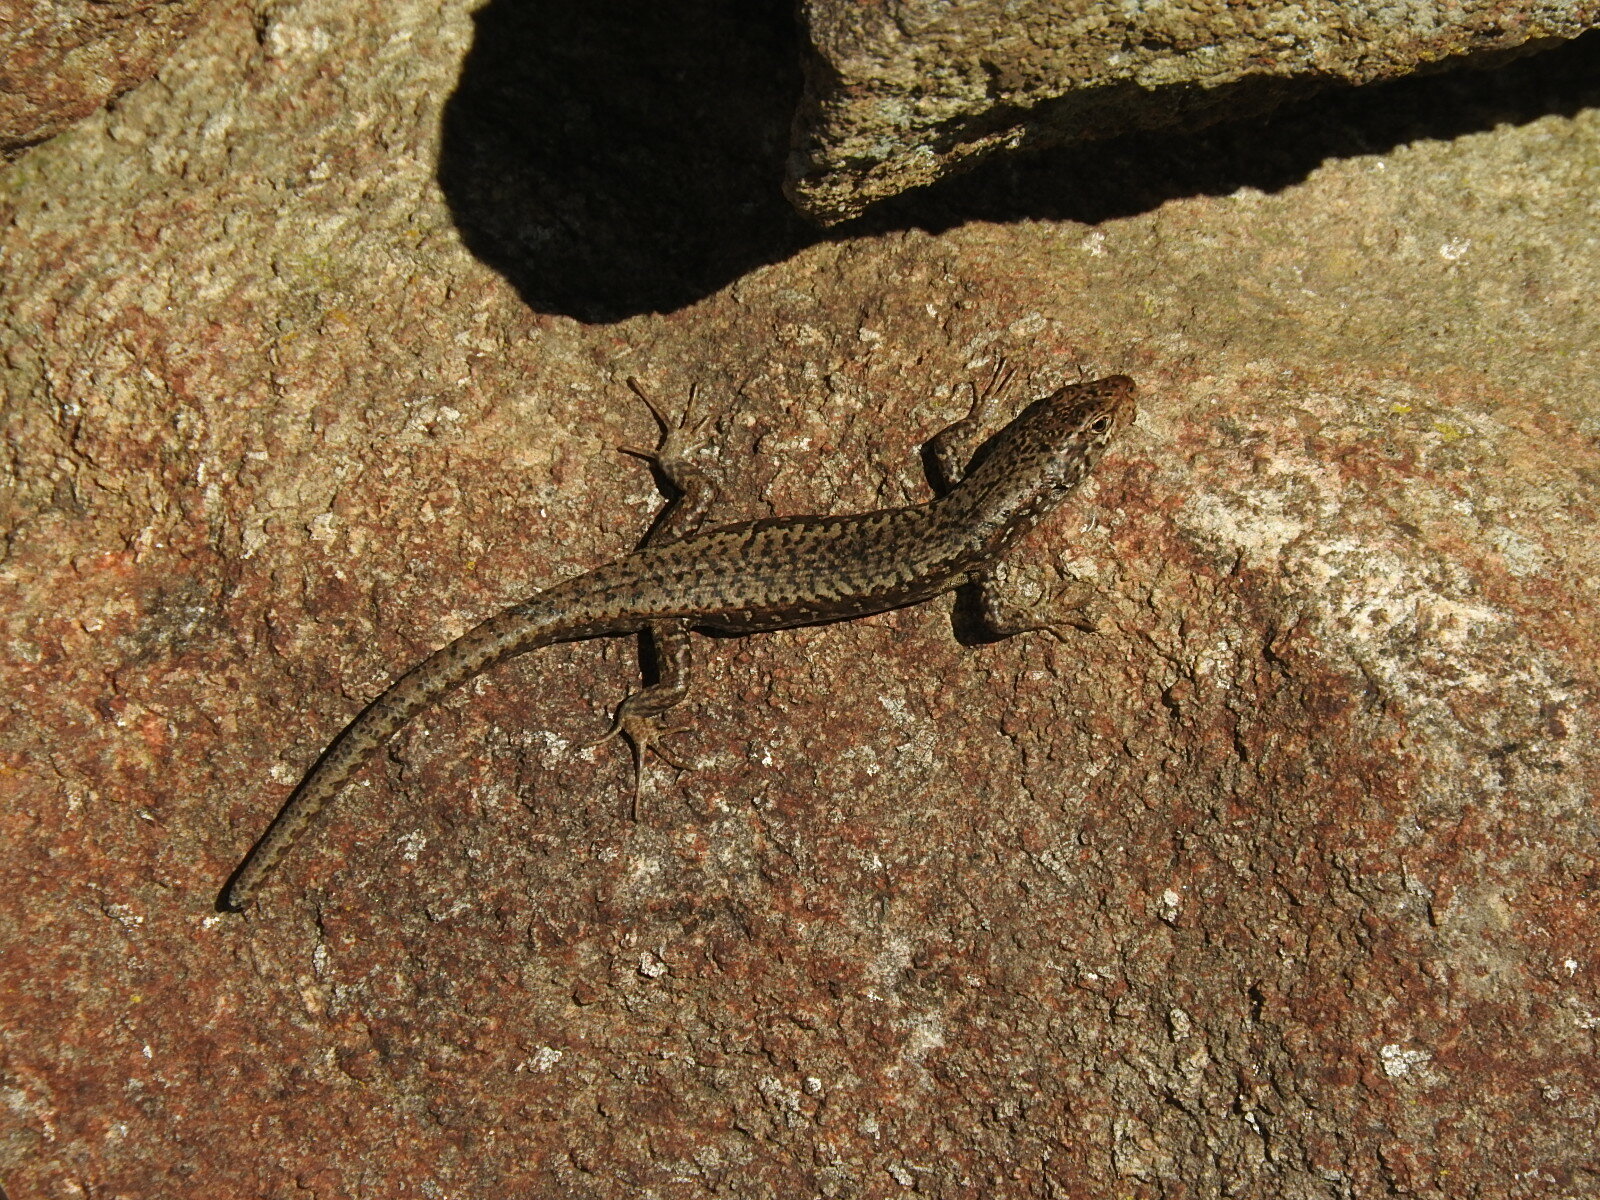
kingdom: Animalia
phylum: Chordata
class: Squamata
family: Scincidae
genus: Carinascincus
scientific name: Carinascincus ocellatus
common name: Ocellated cool-skink
